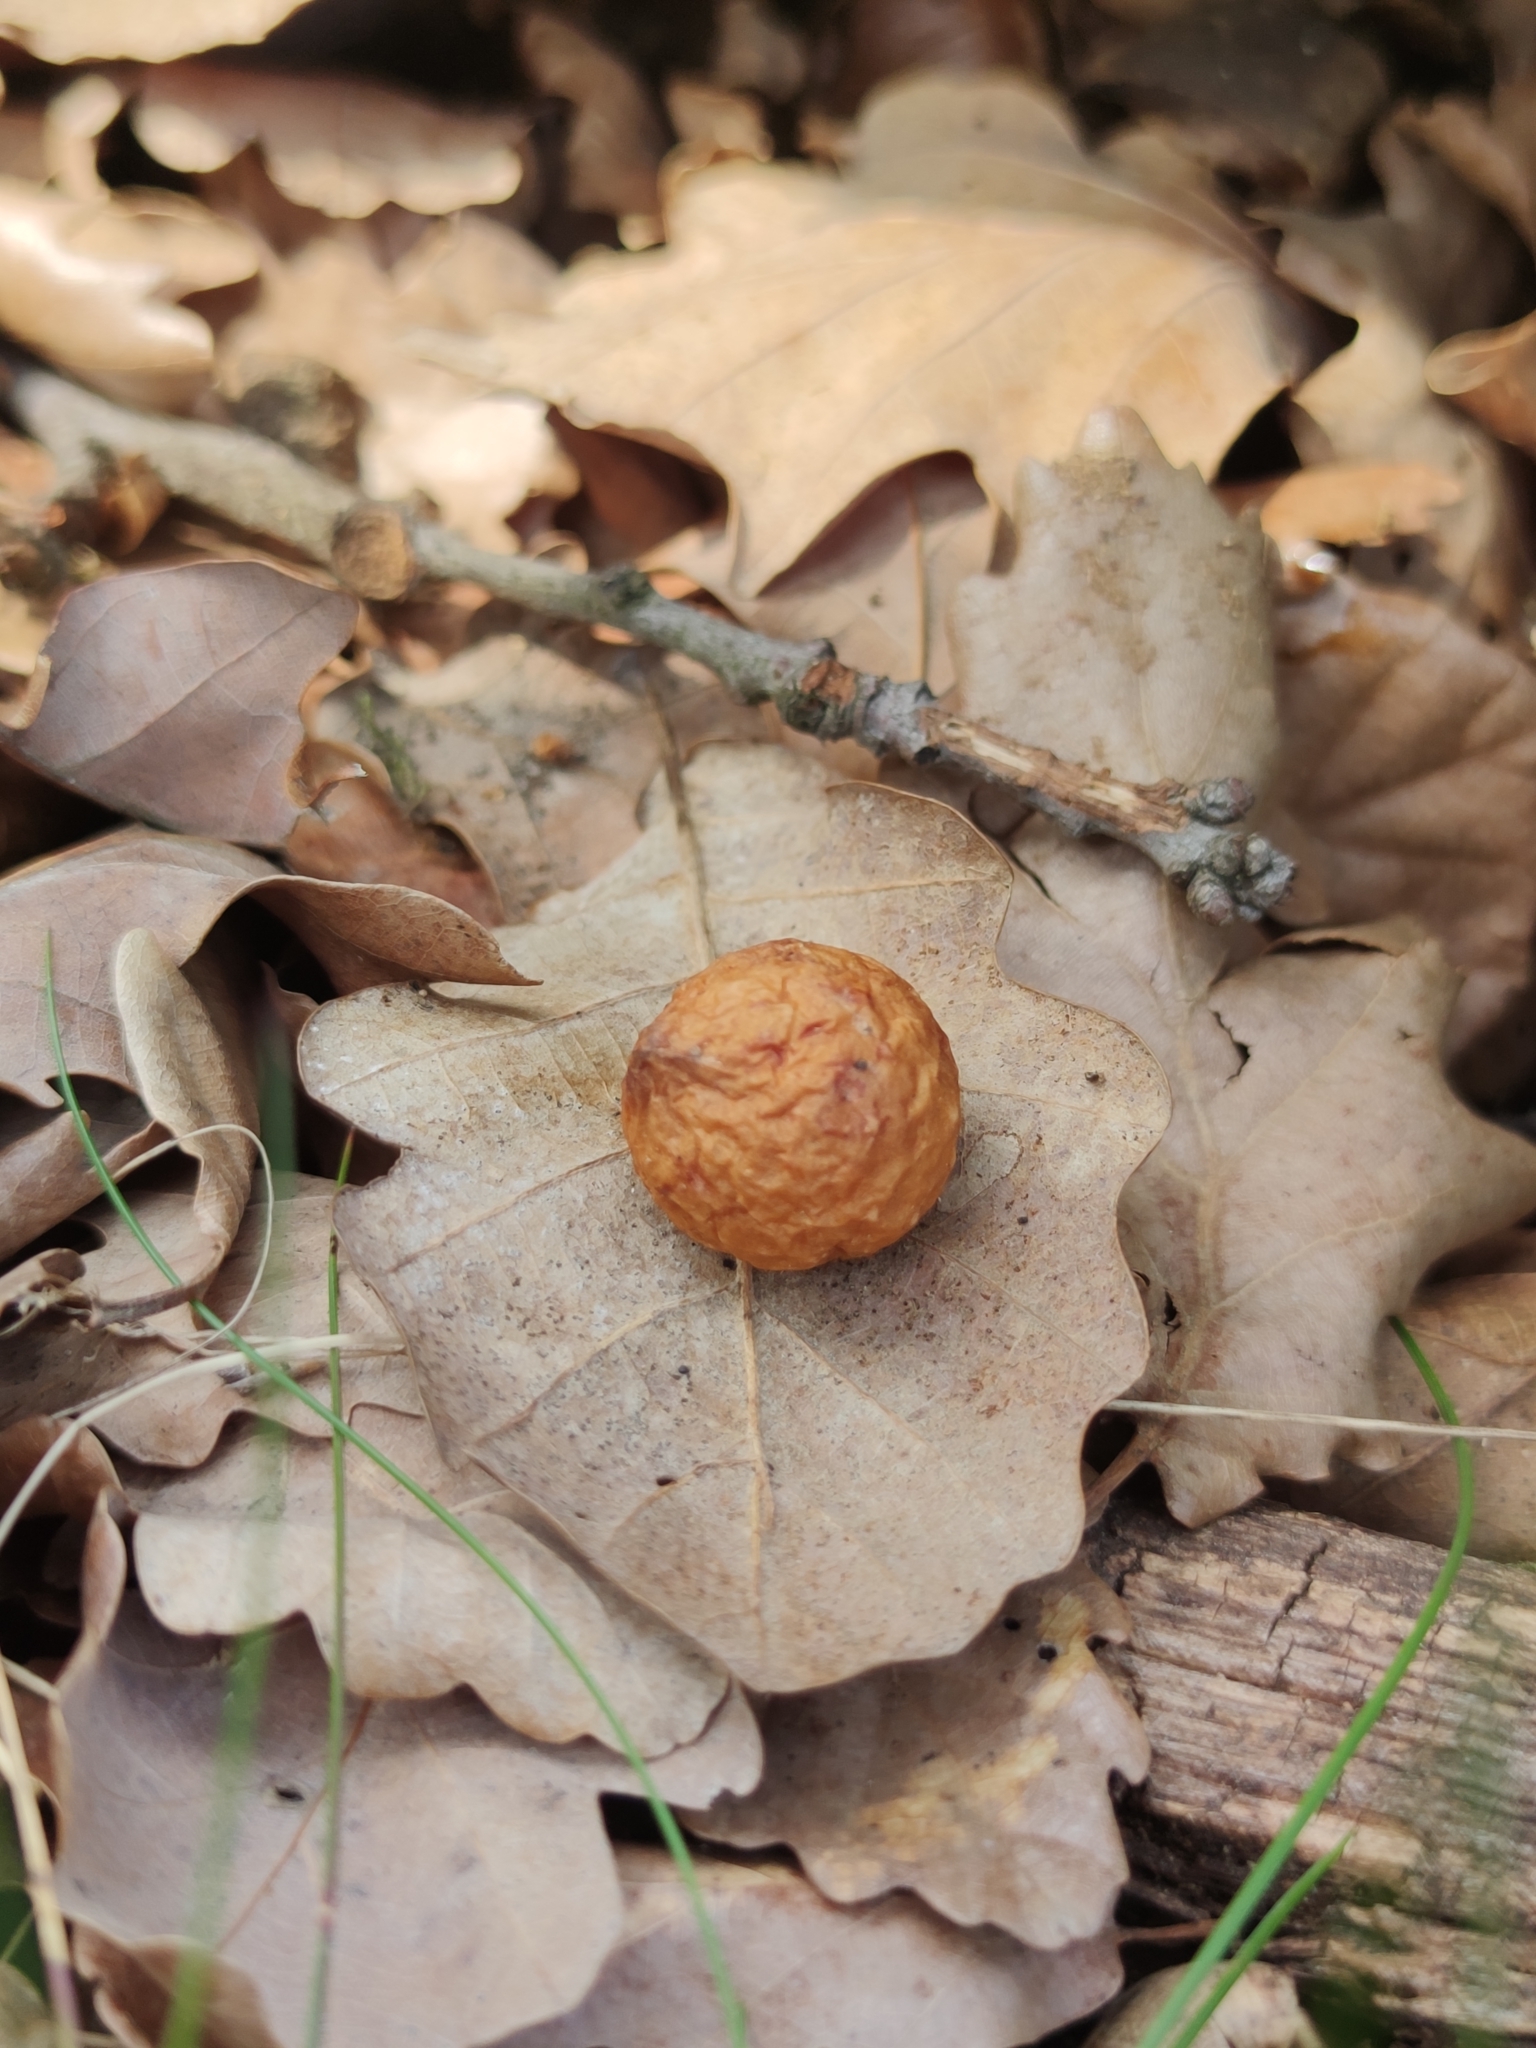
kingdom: Animalia
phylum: Arthropoda
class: Insecta
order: Hymenoptera
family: Cynipidae
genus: Cynips
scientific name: Cynips quercusfolii
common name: Cherry gall
